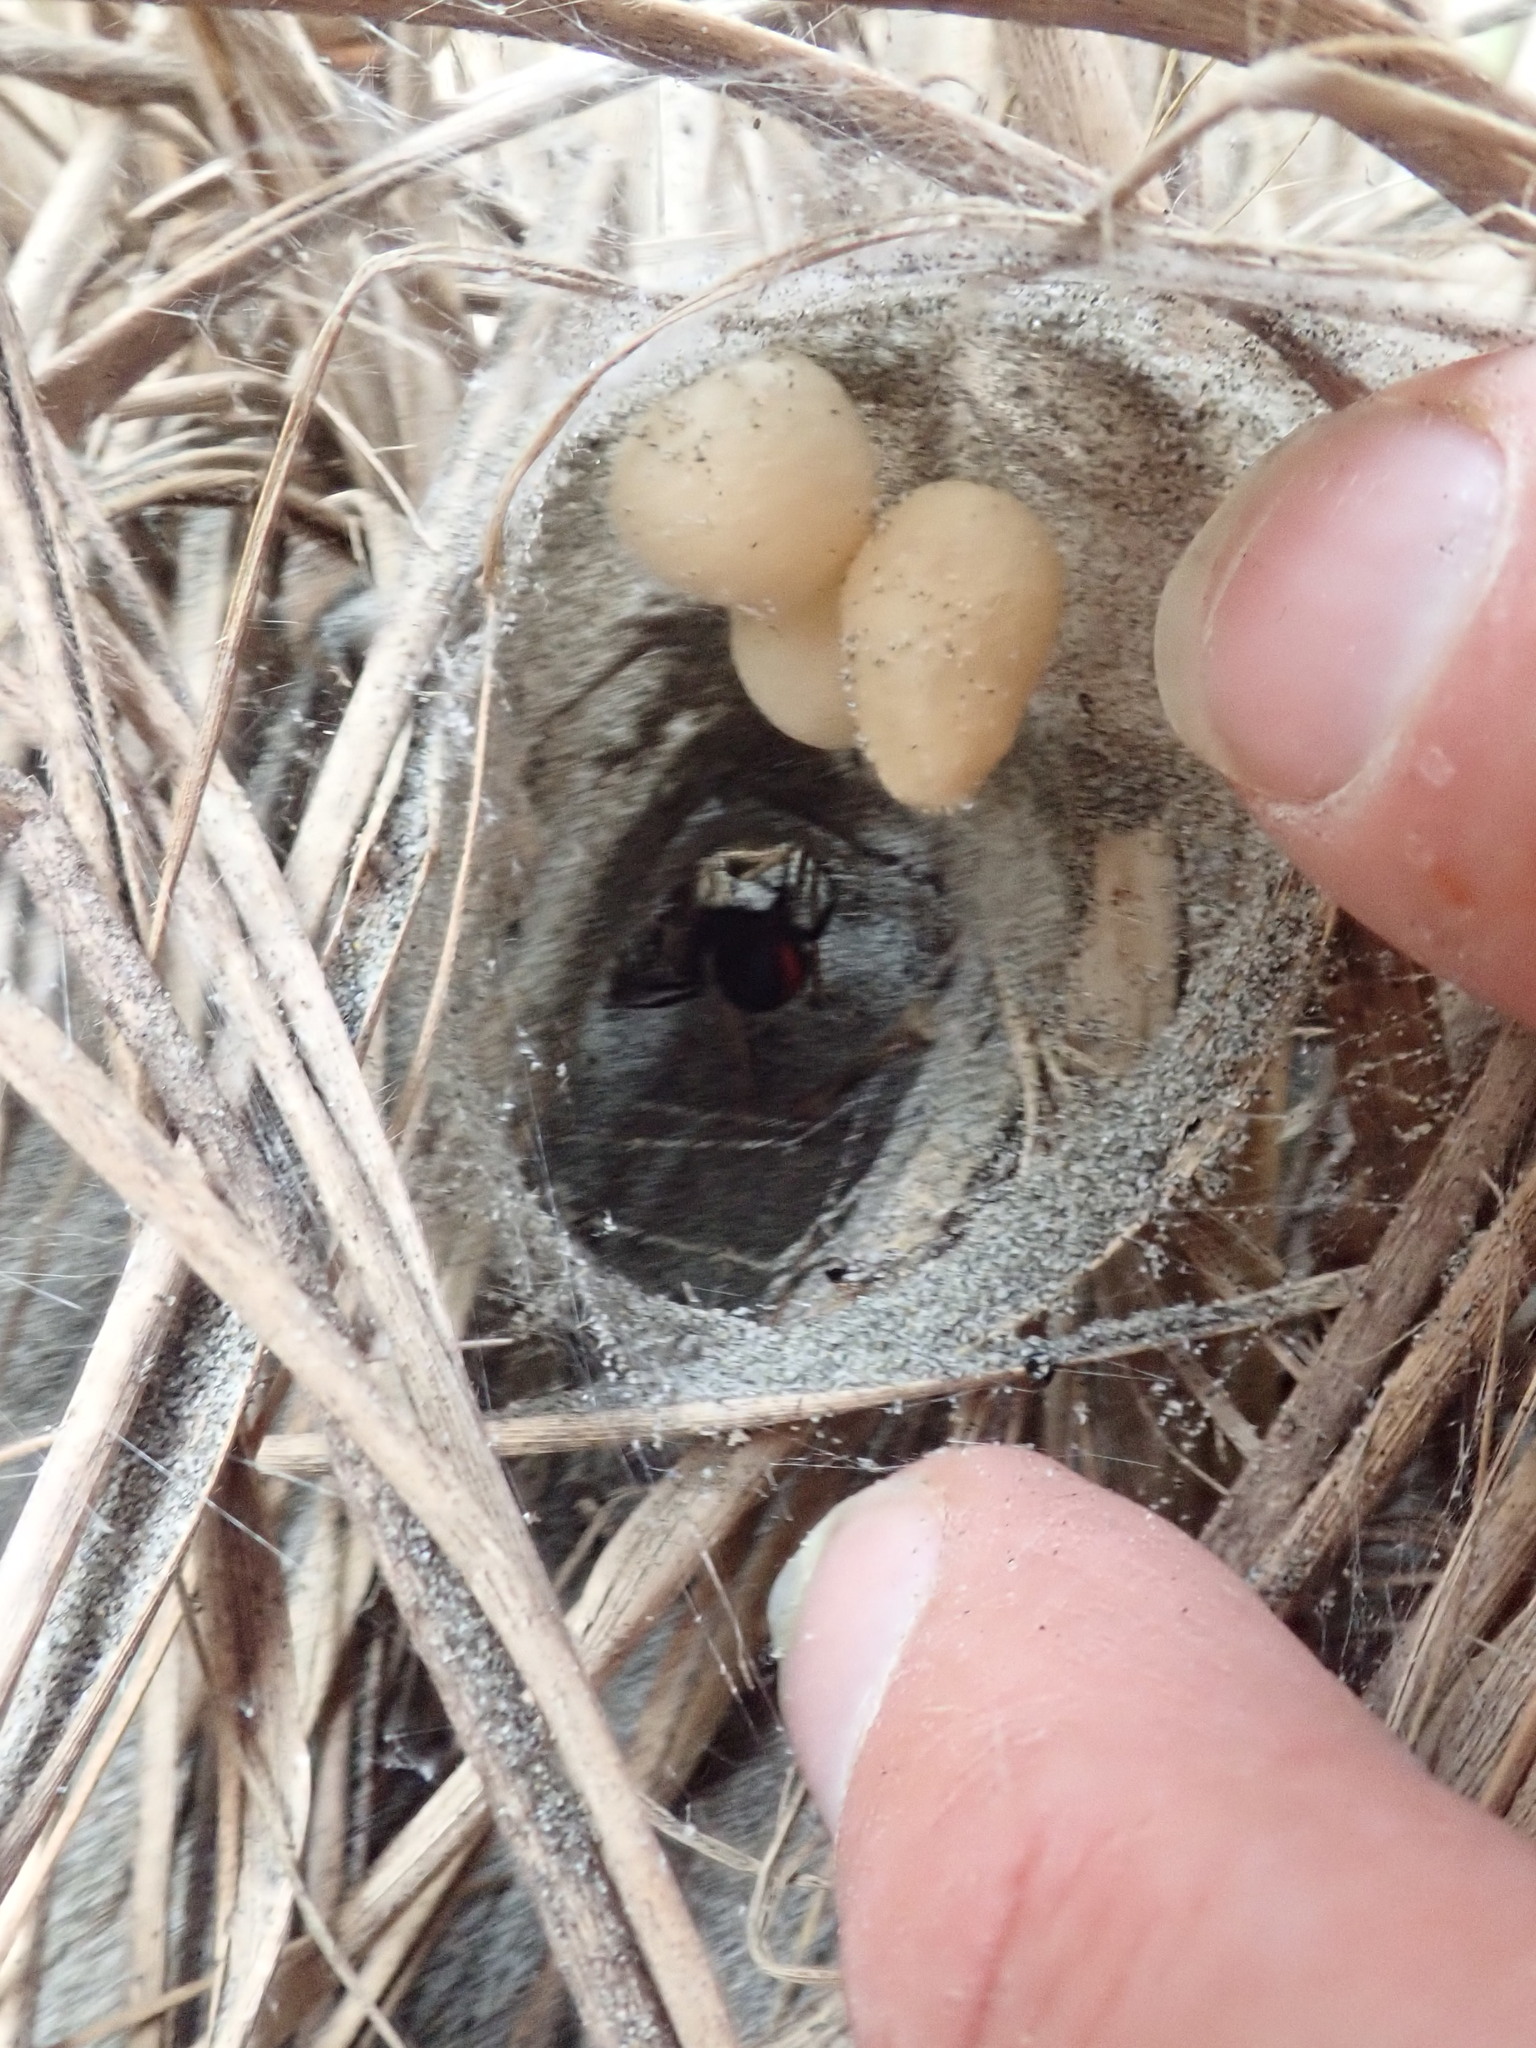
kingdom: Animalia
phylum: Arthropoda
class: Arachnida
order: Araneae
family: Theridiidae
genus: Latrodectus
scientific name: Latrodectus katipo
